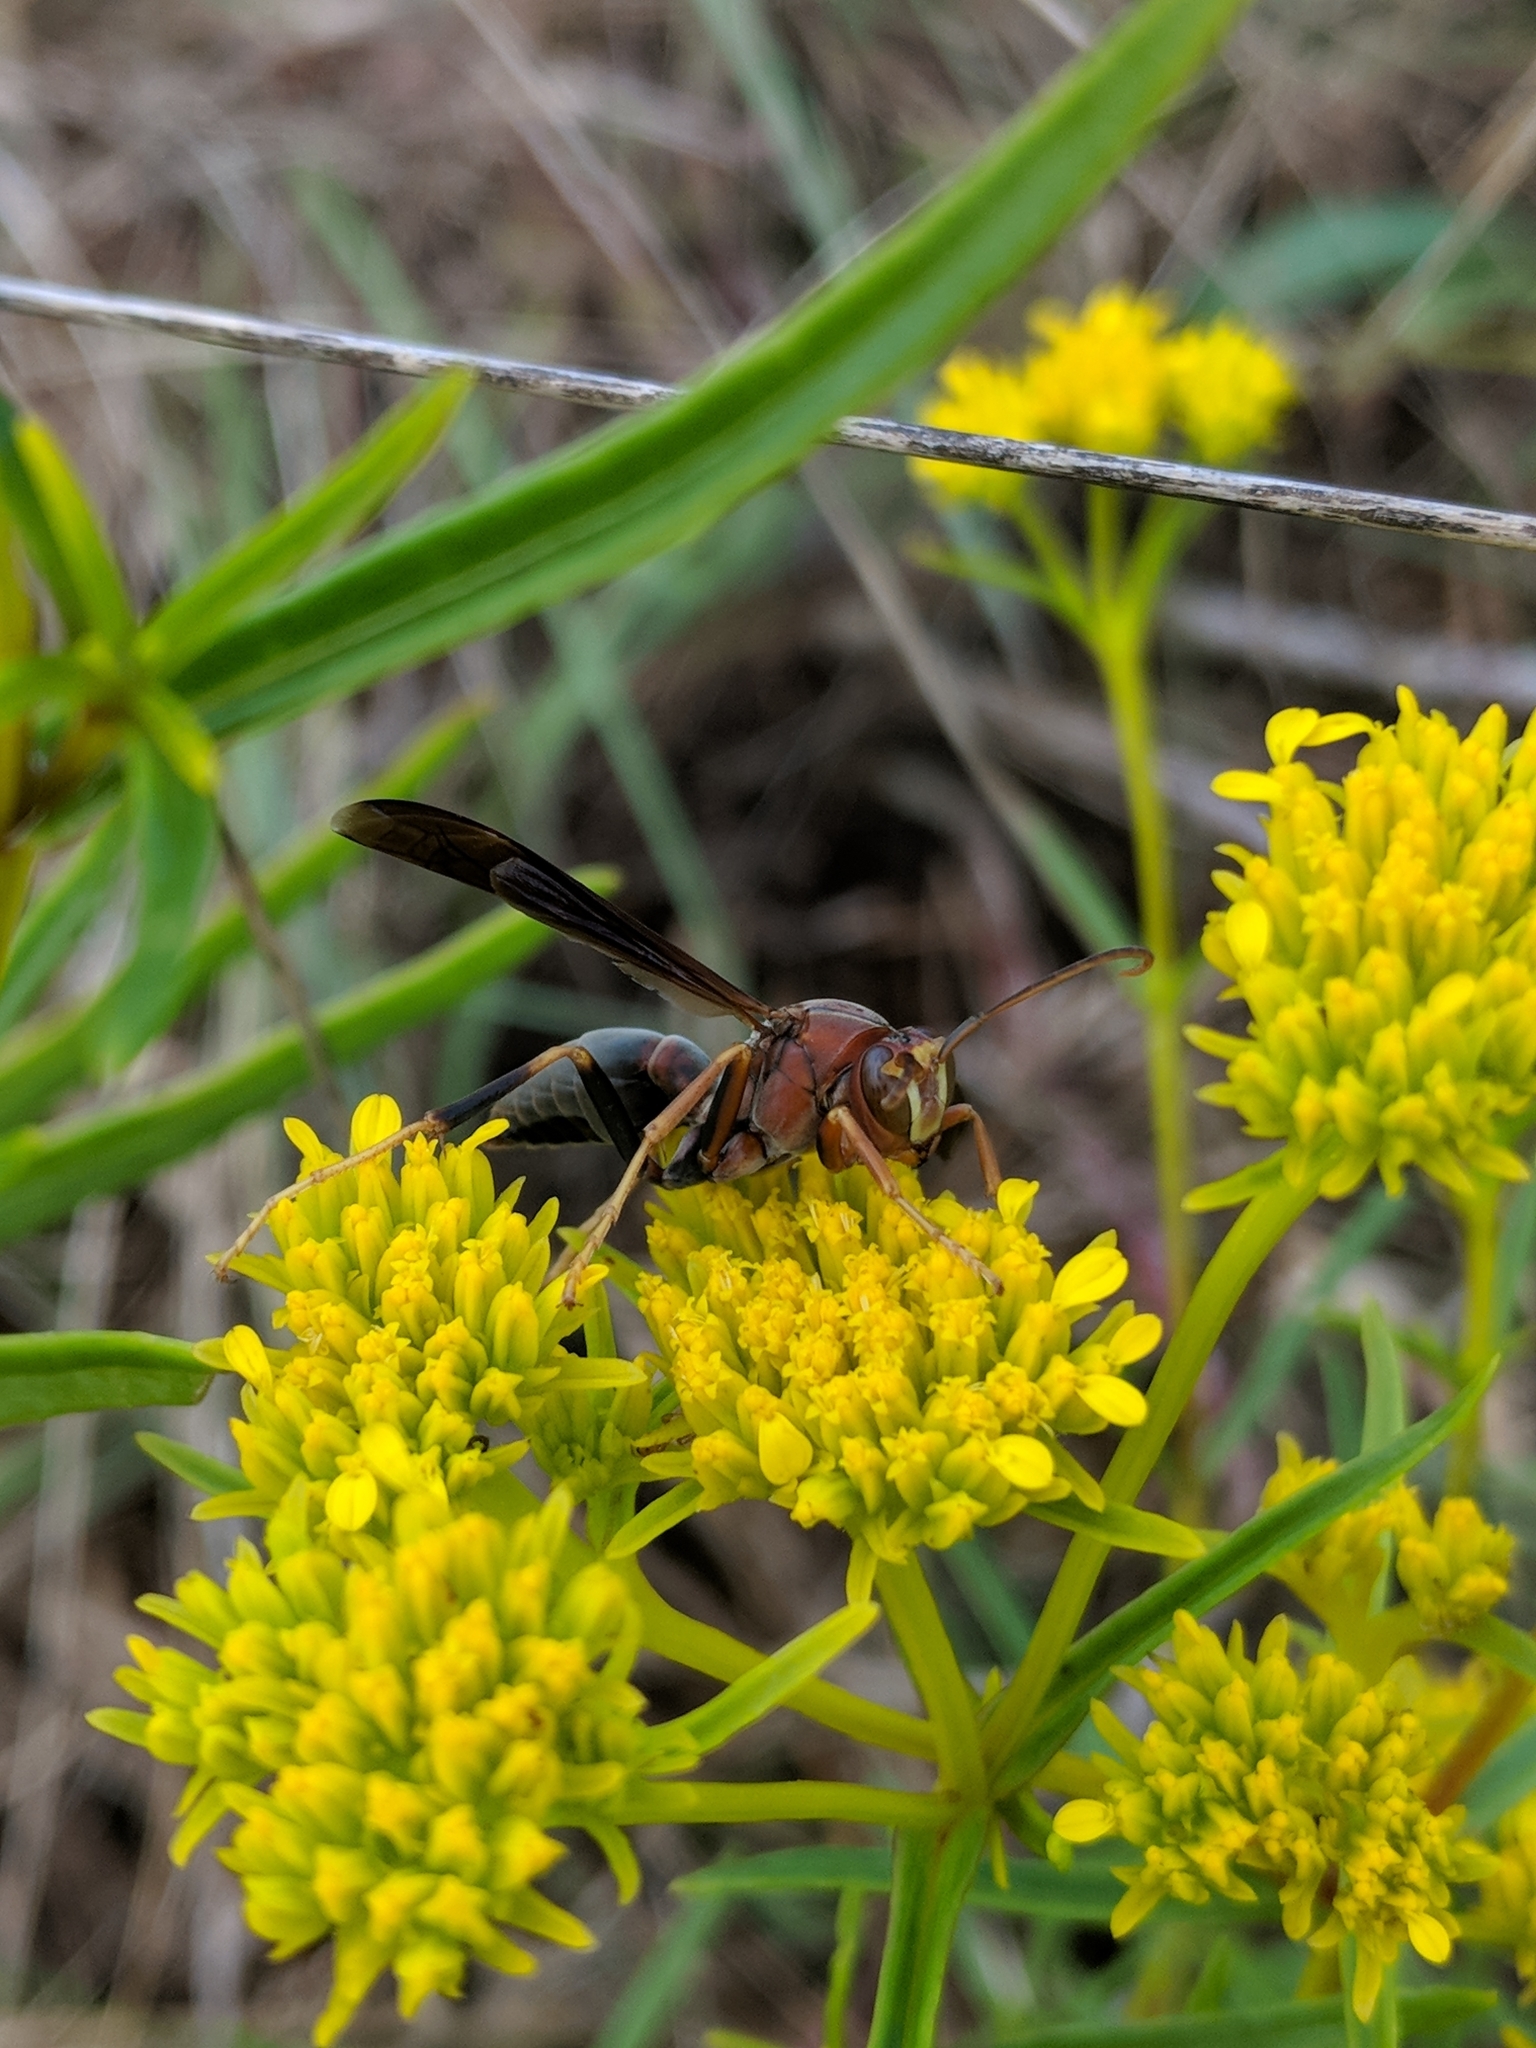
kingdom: Animalia
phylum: Arthropoda
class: Insecta
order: Hymenoptera
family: Eumenidae
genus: Polistes
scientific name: Polistes metricus
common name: Metric paper wasp
